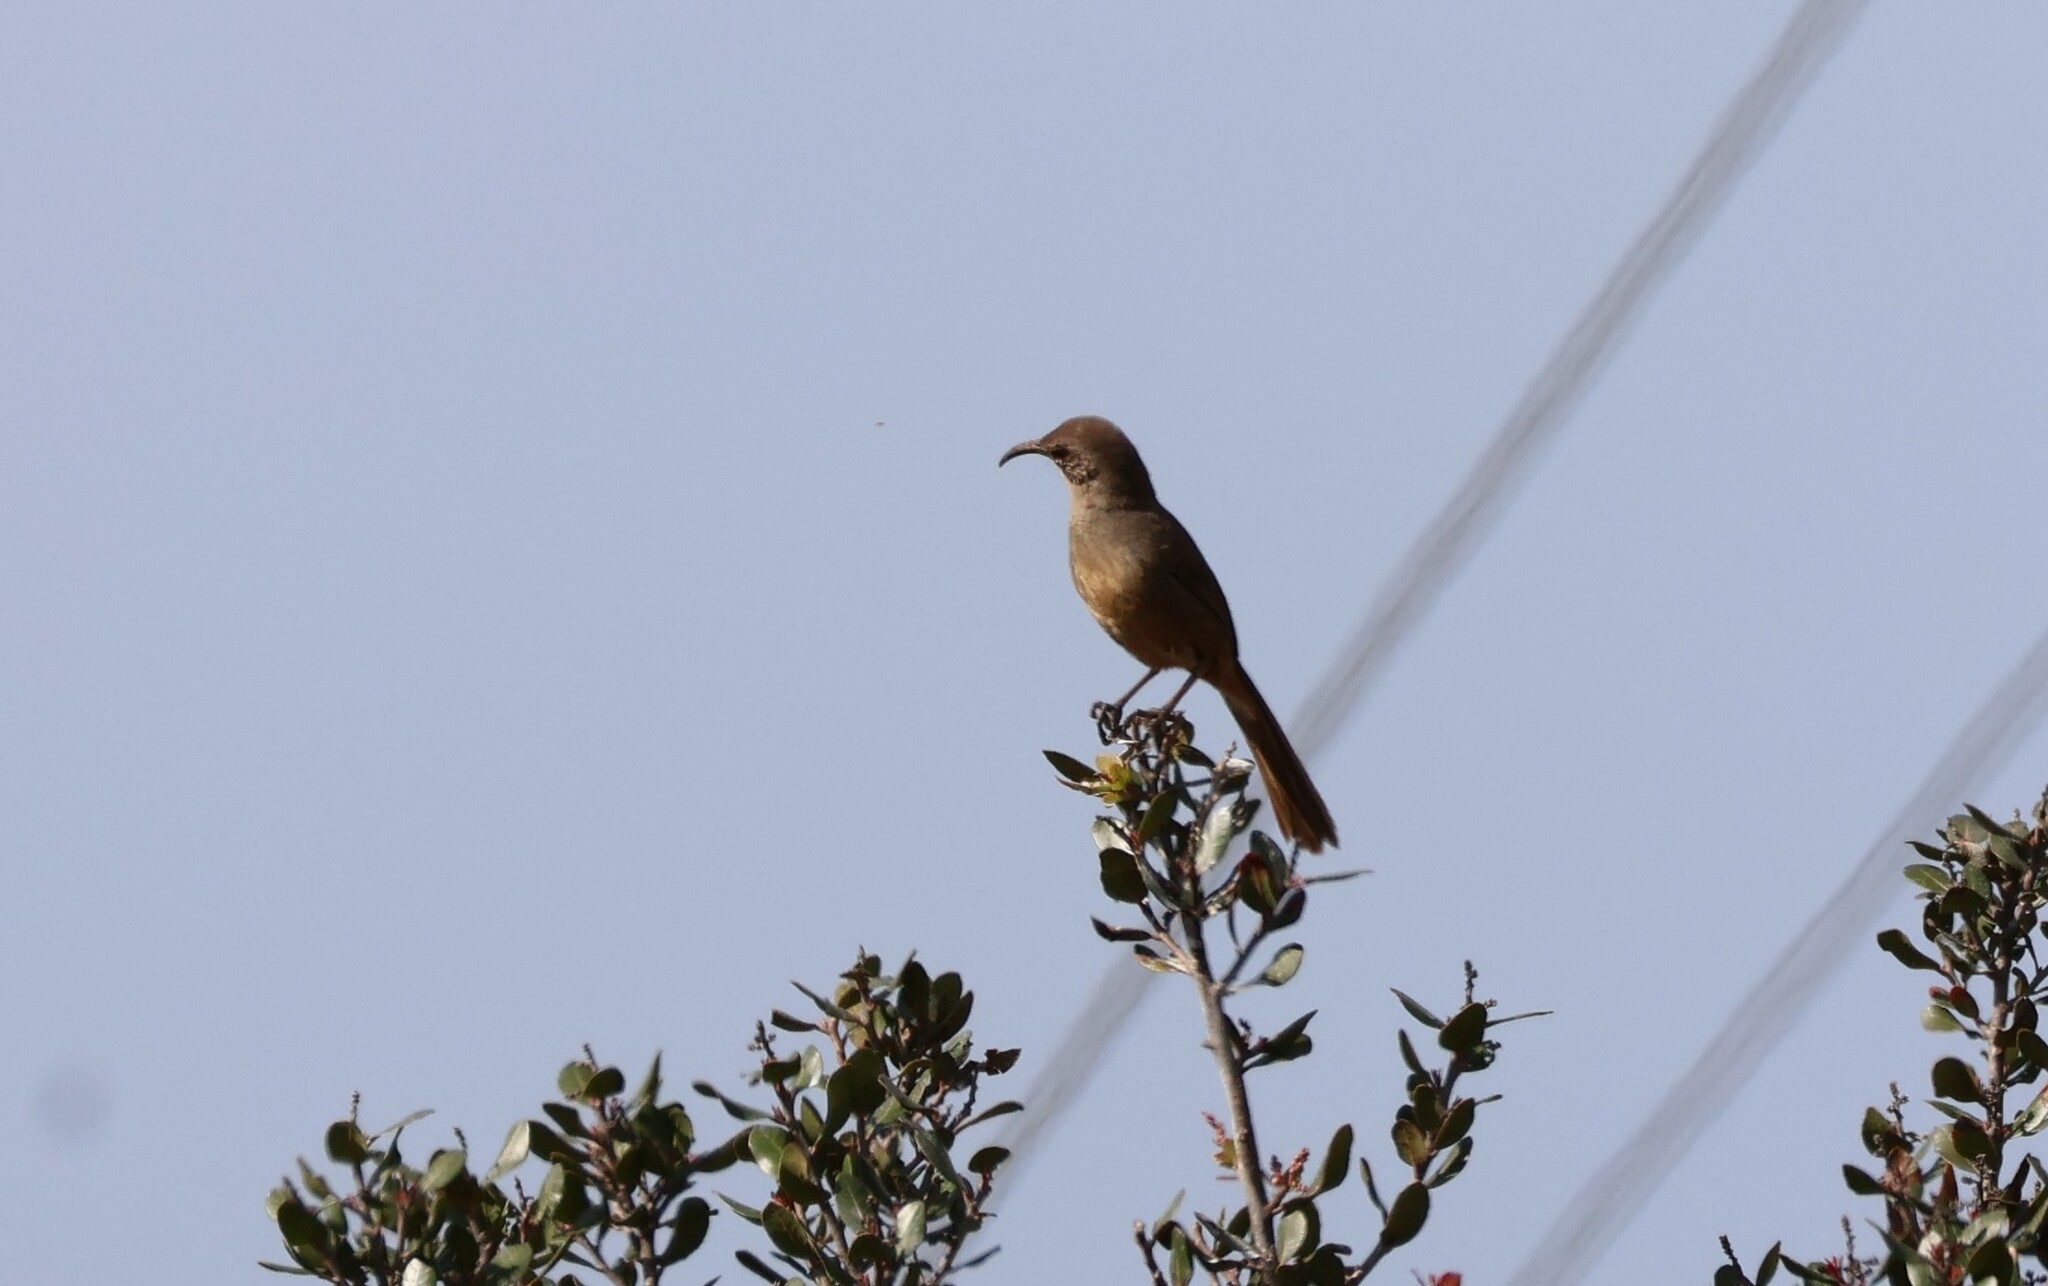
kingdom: Animalia
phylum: Chordata
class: Aves
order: Passeriformes
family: Mimidae
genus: Toxostoma
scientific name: Toxostoma redivivum
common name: California thrasher
